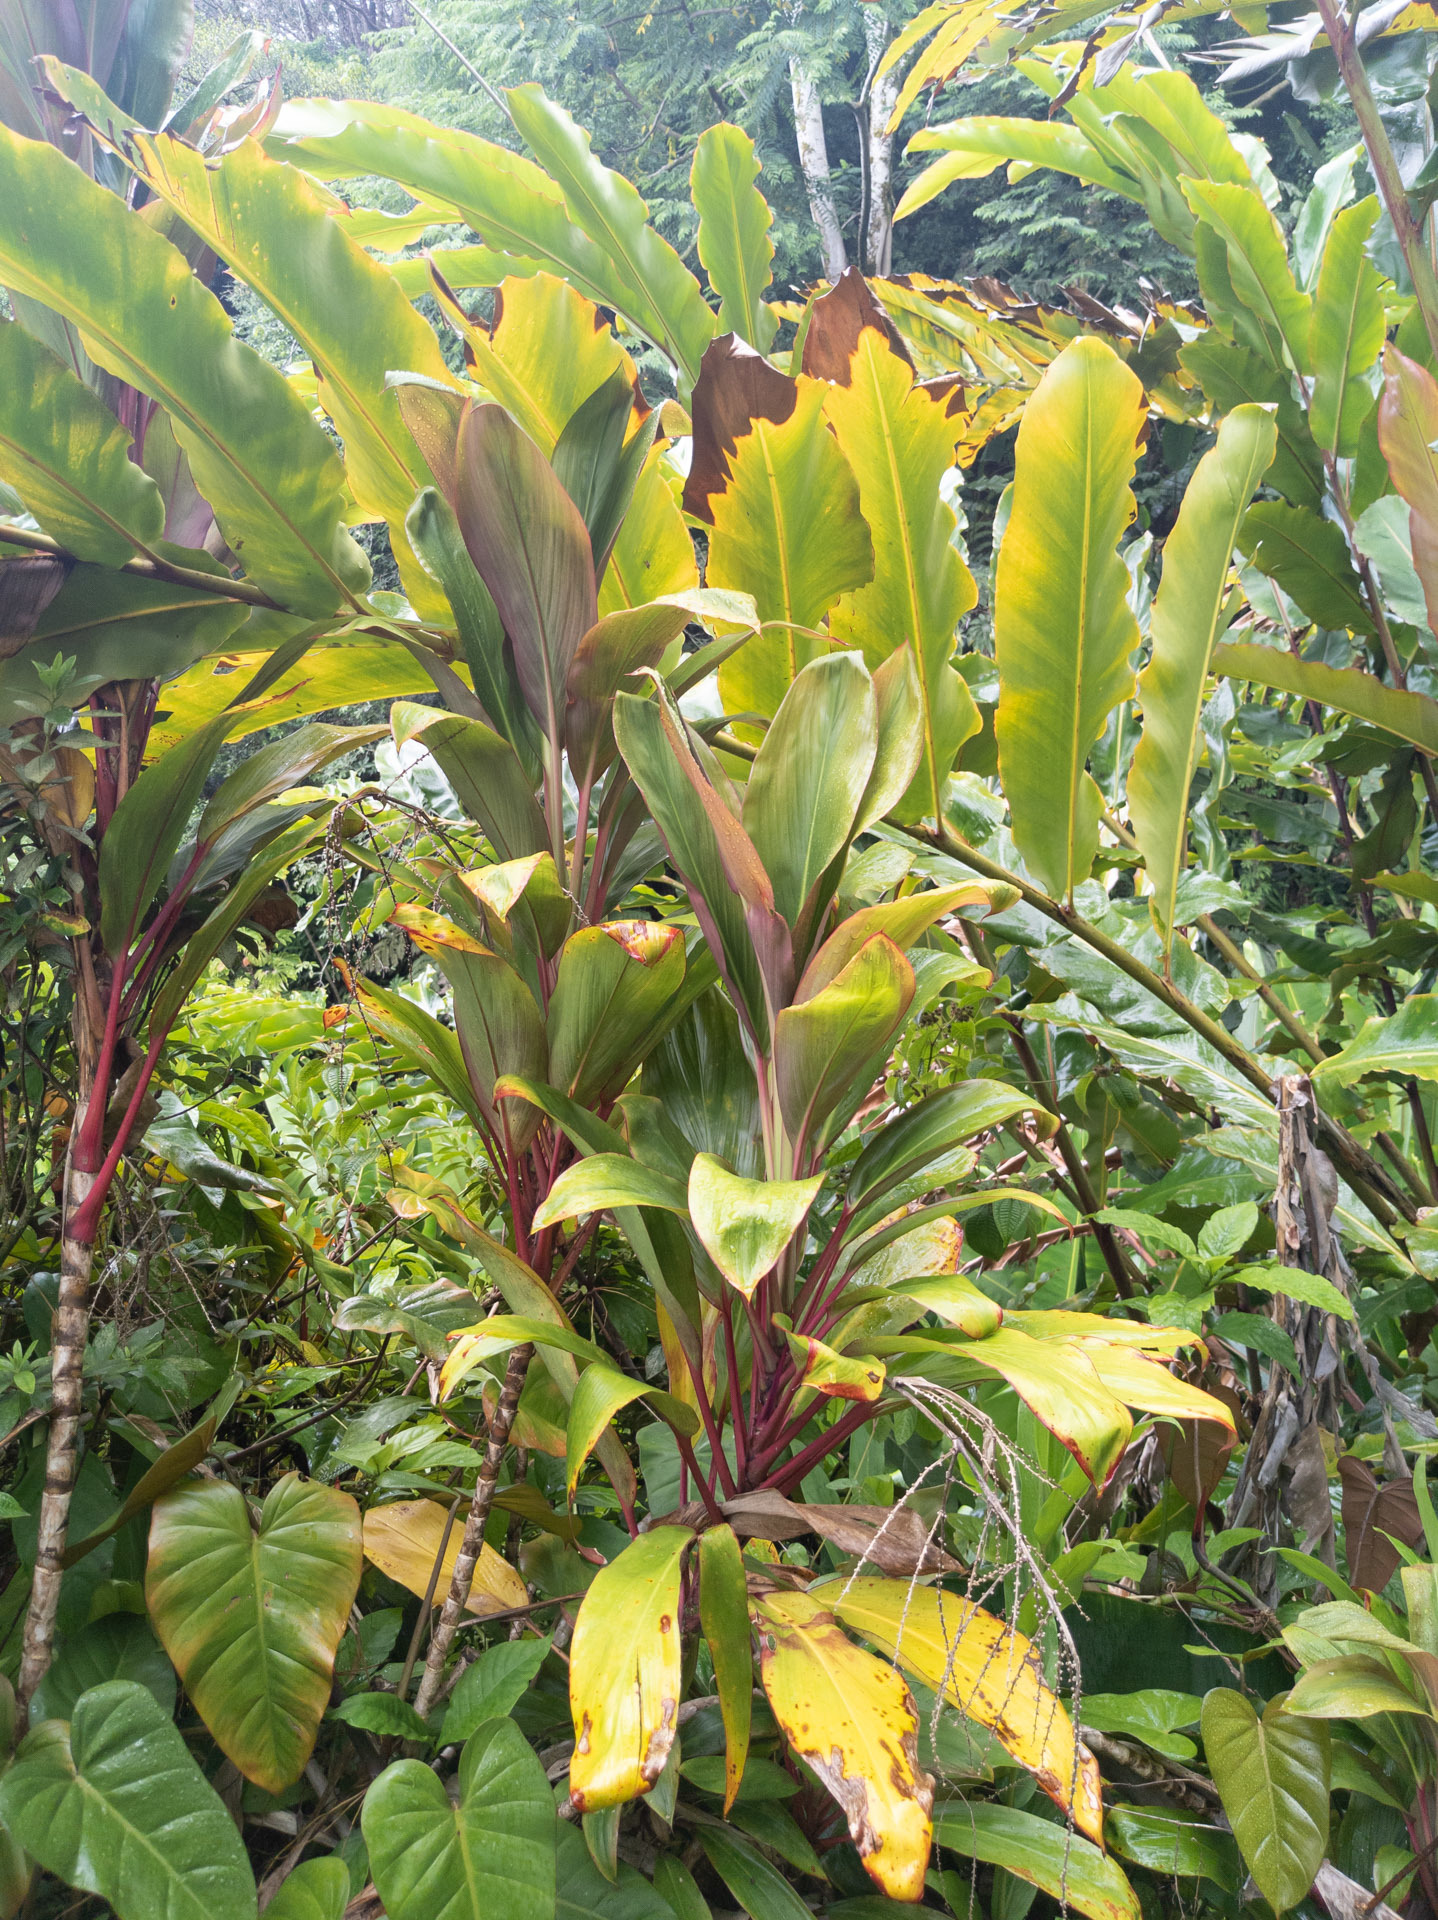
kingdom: Plantae
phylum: Tracheophyta
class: Liliopsida
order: Asparagales
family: Asparagaceae
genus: Cordyline
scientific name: Cordyline fruticosa
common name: Good-luck-plant
